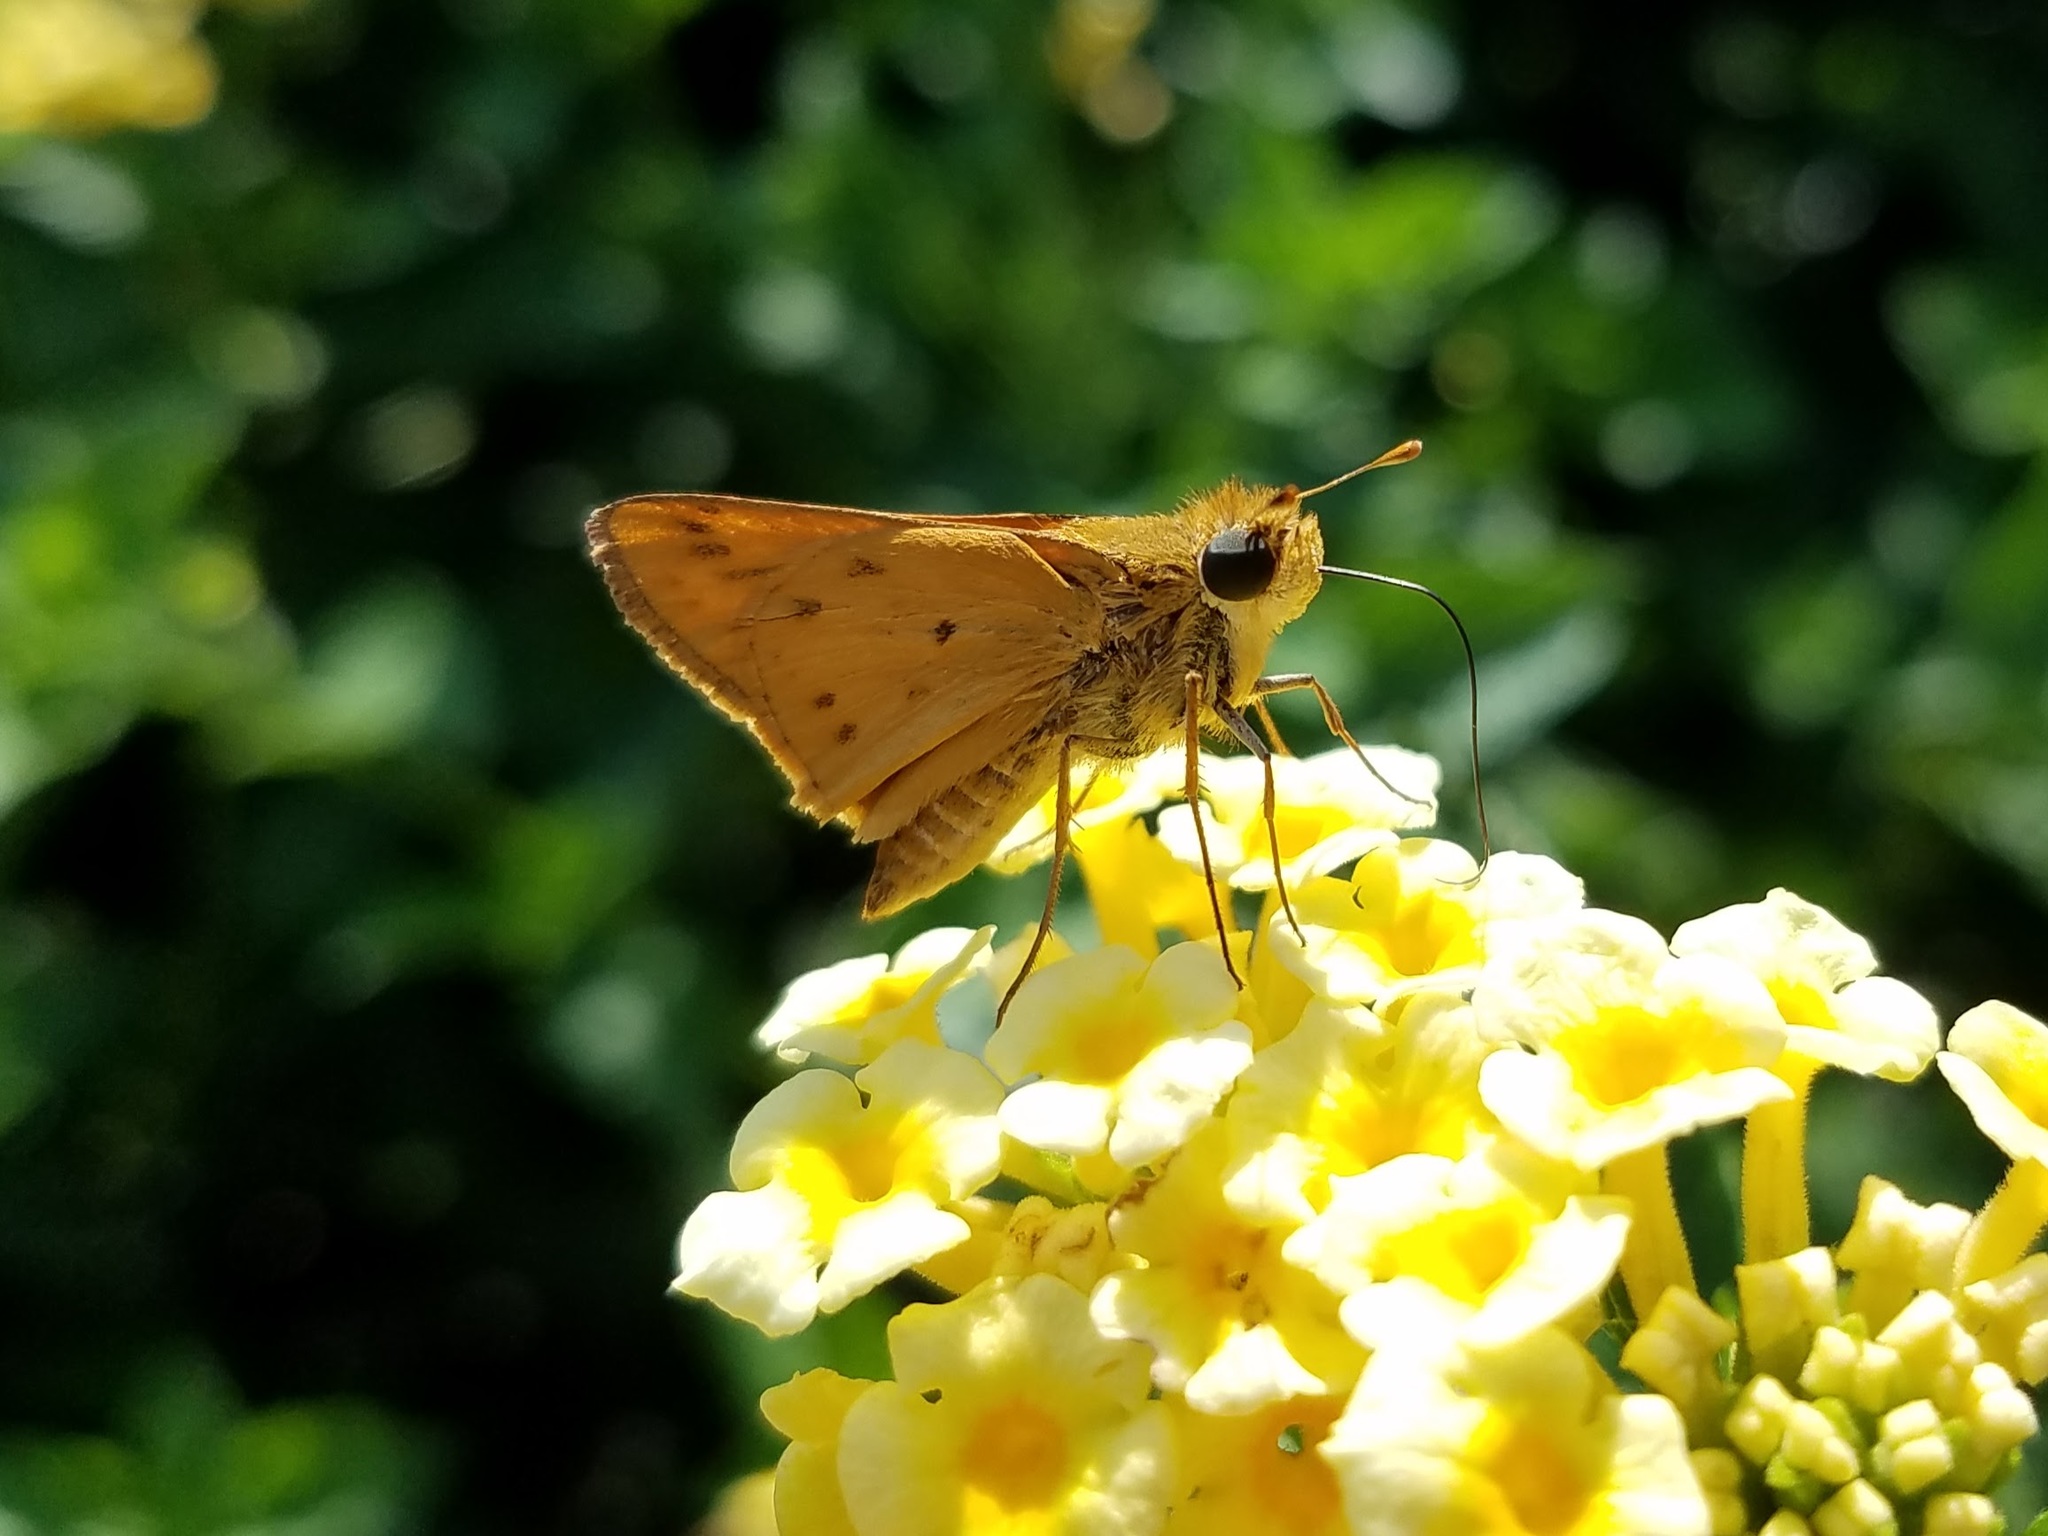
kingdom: Animalia
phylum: Arthropoda
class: Insecta
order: Lepidoptera
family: Hesperiidae
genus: Hylephila
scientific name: Hylephila phyleus
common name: Fiery skipper
